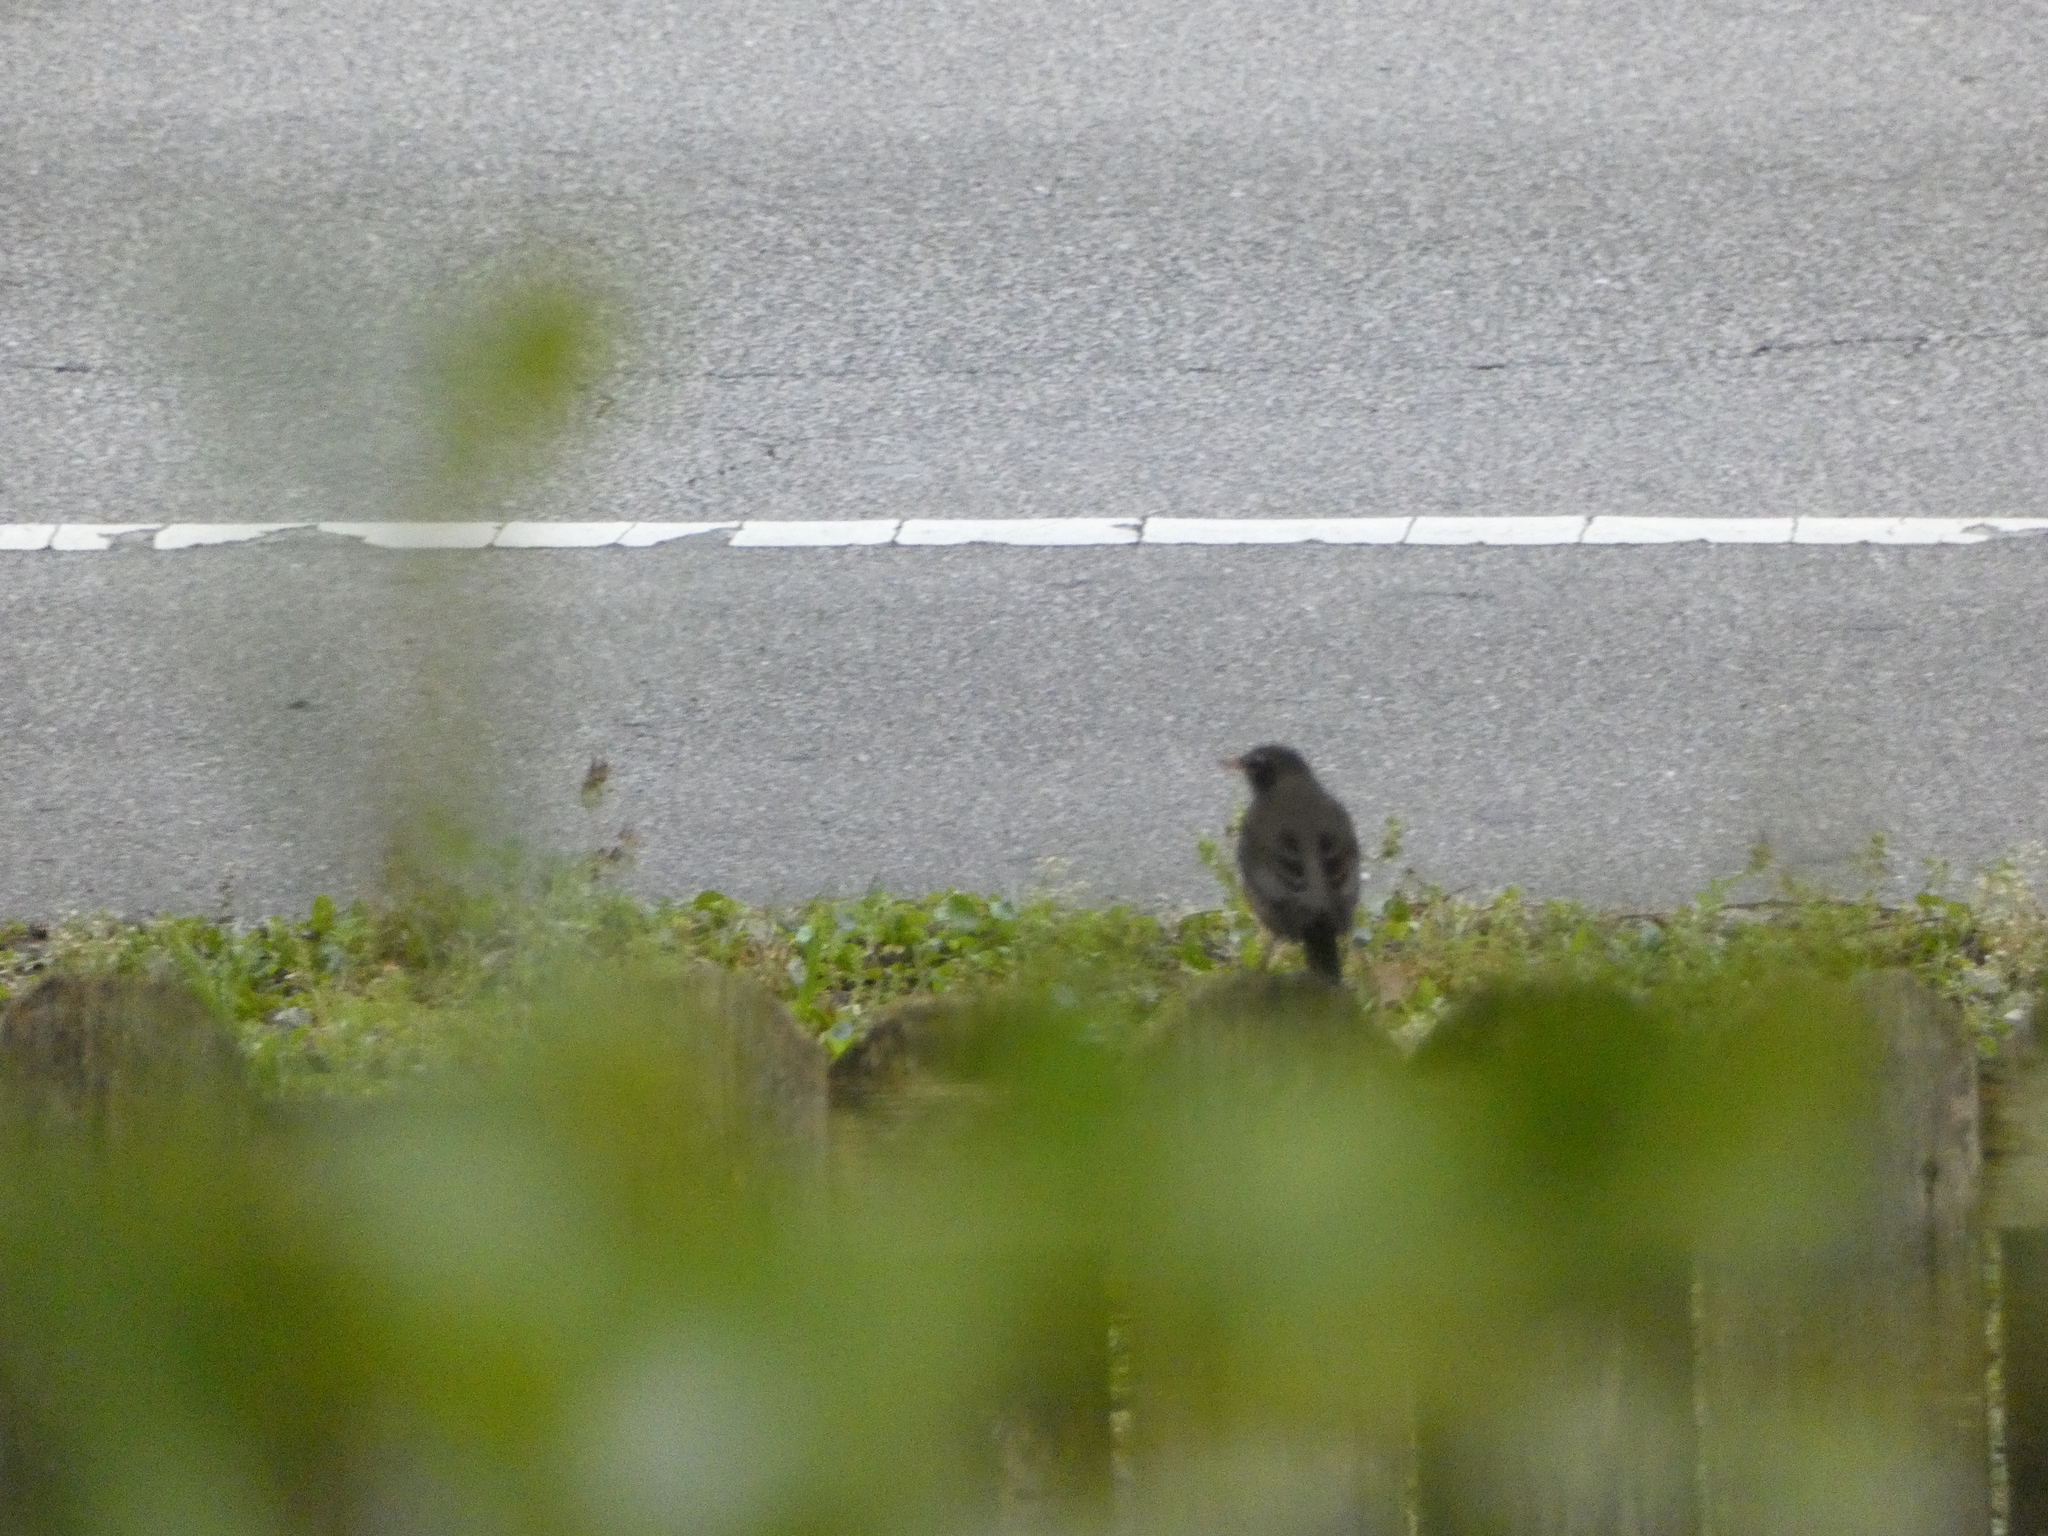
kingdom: Animalia
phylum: Chordata
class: Aves
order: Passeriformes
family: Turdidae
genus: Turdus
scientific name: Turdus migratorius
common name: American robin
